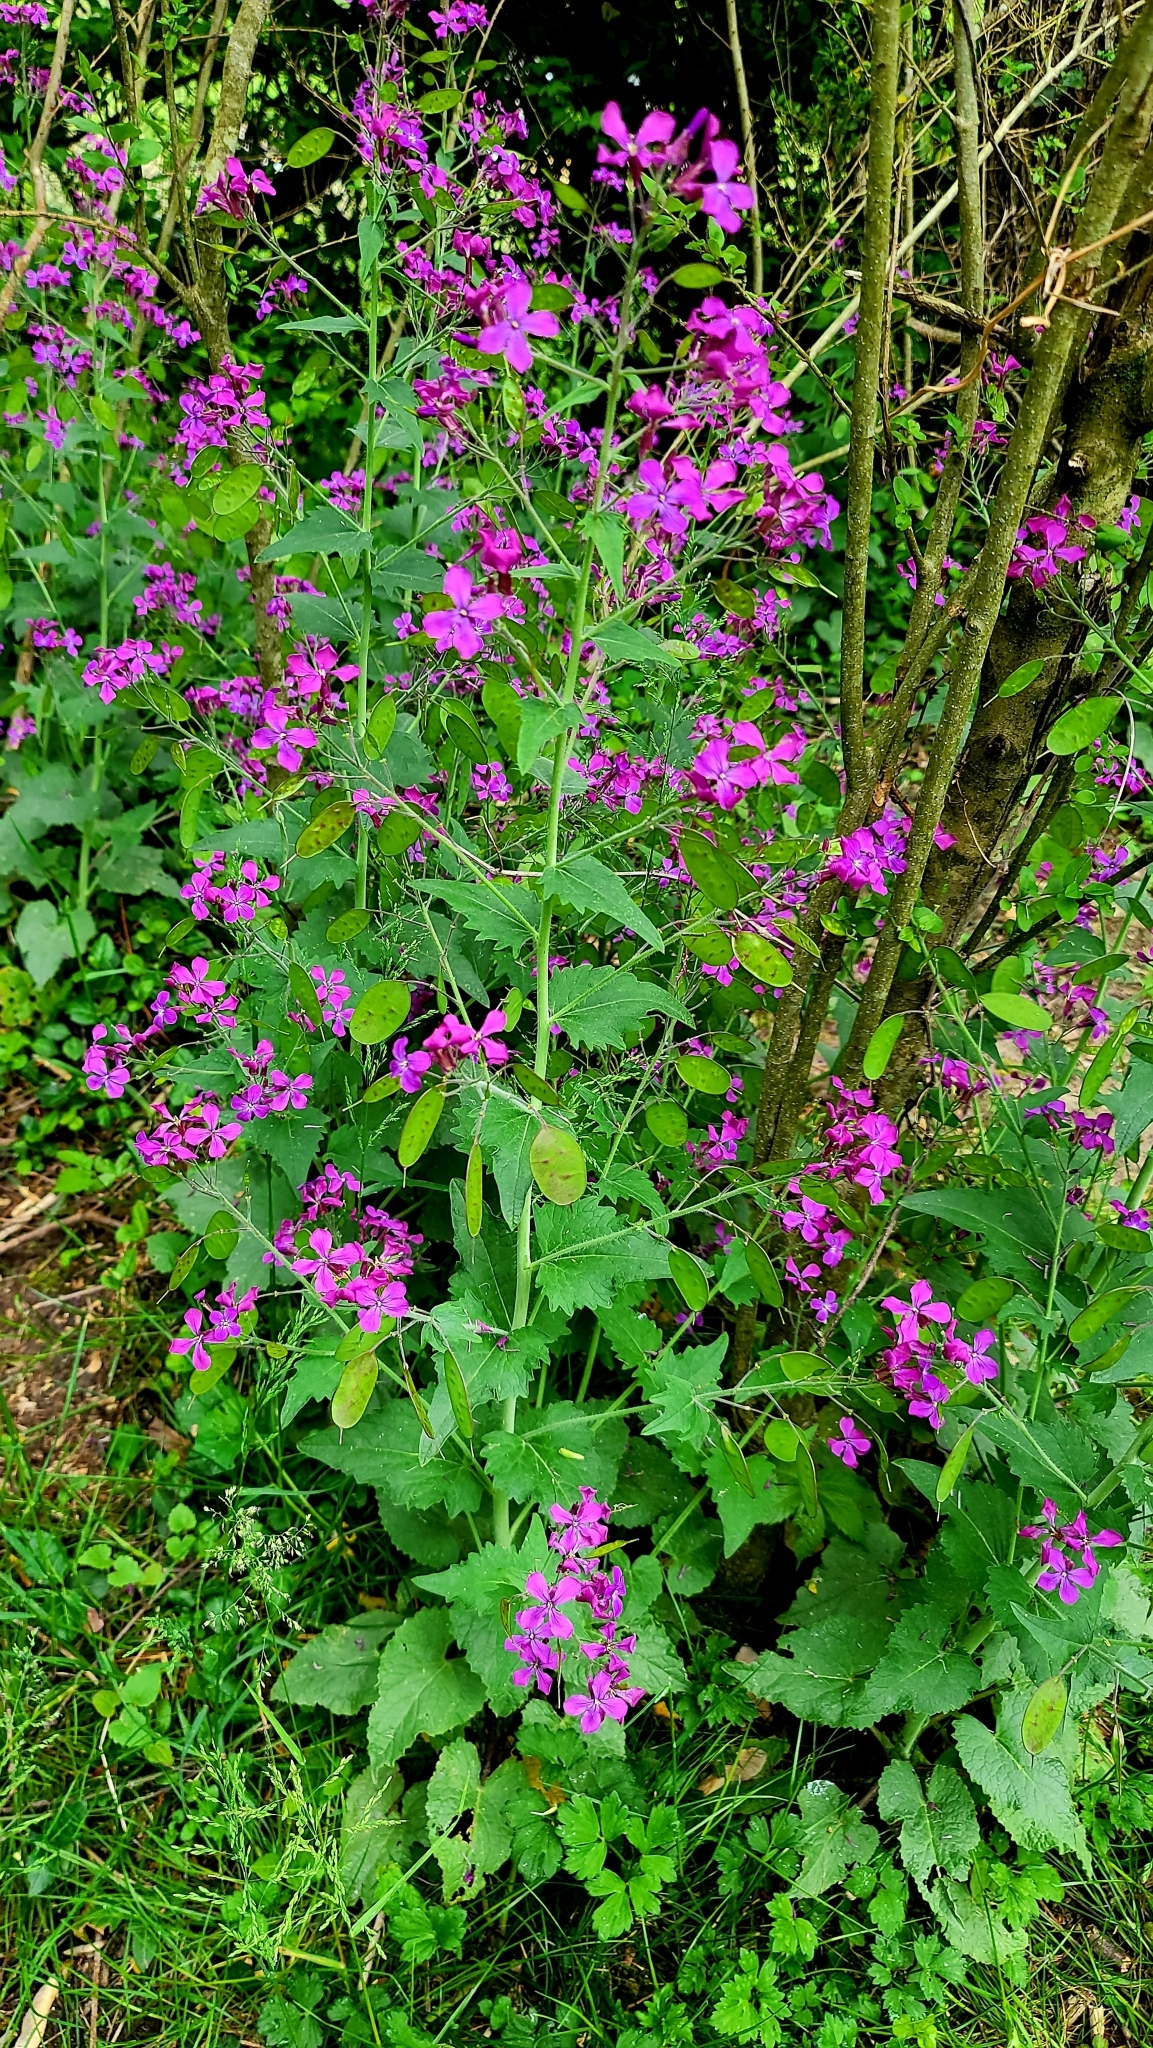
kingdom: Plantae
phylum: Tracheophyta
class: Magnoliopsida
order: Brassicales
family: Brassicaceae
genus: Lunaria
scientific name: Lunaria annua
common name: Honesty
